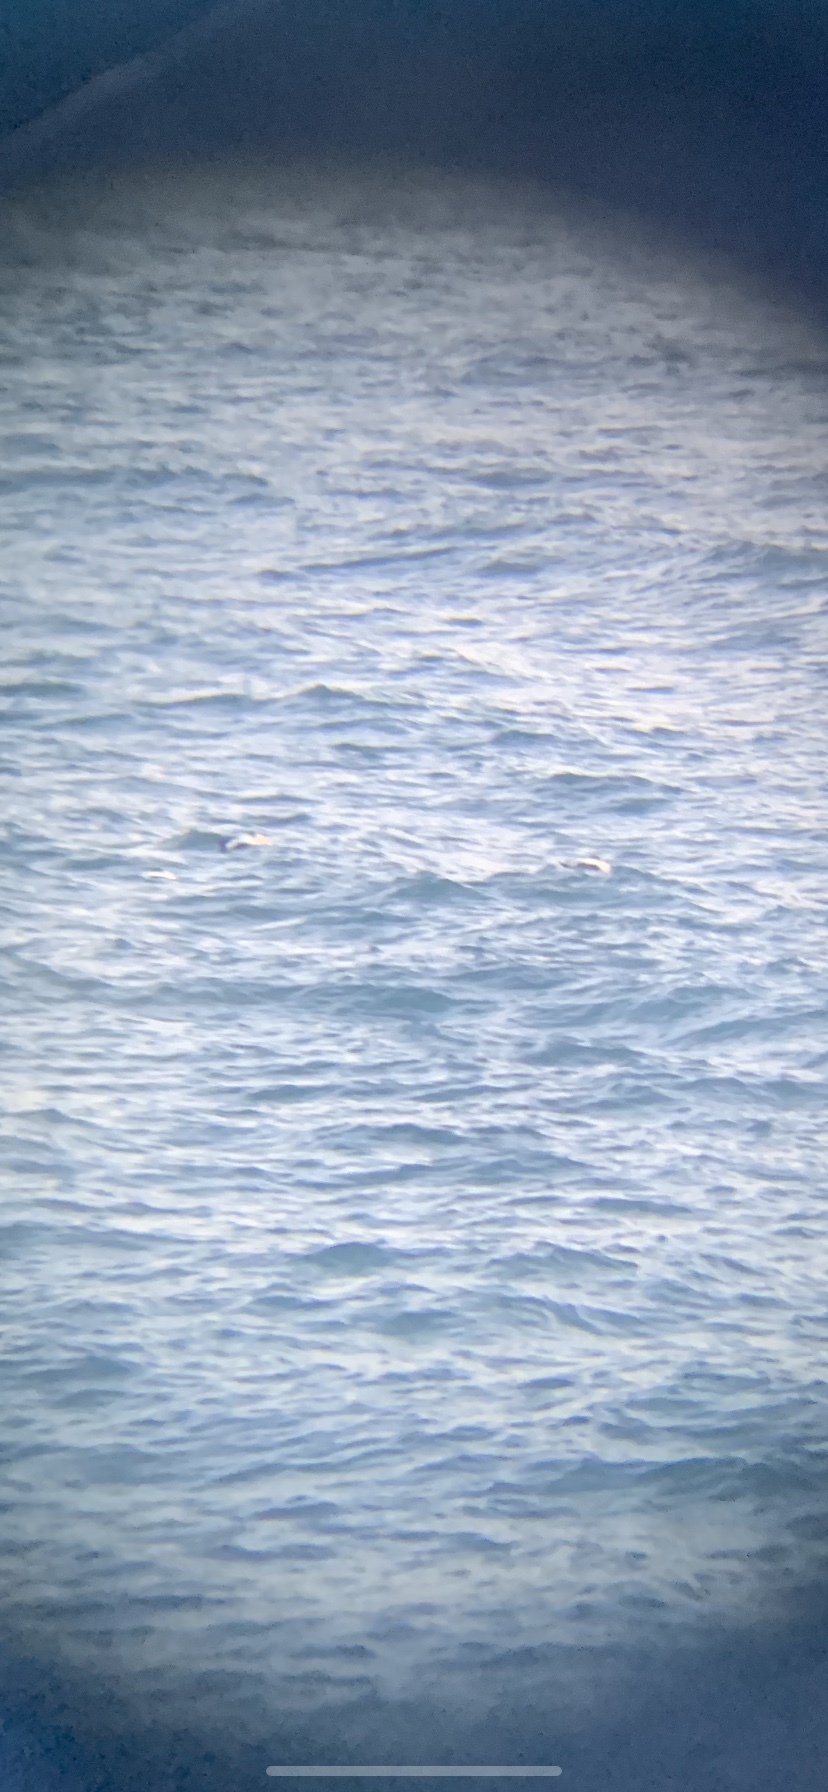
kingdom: Animalia
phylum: Chordata
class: Aves
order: Anseriformes
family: Anatidae
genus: Somateria
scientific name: Somateria mollissima
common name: Common eider
